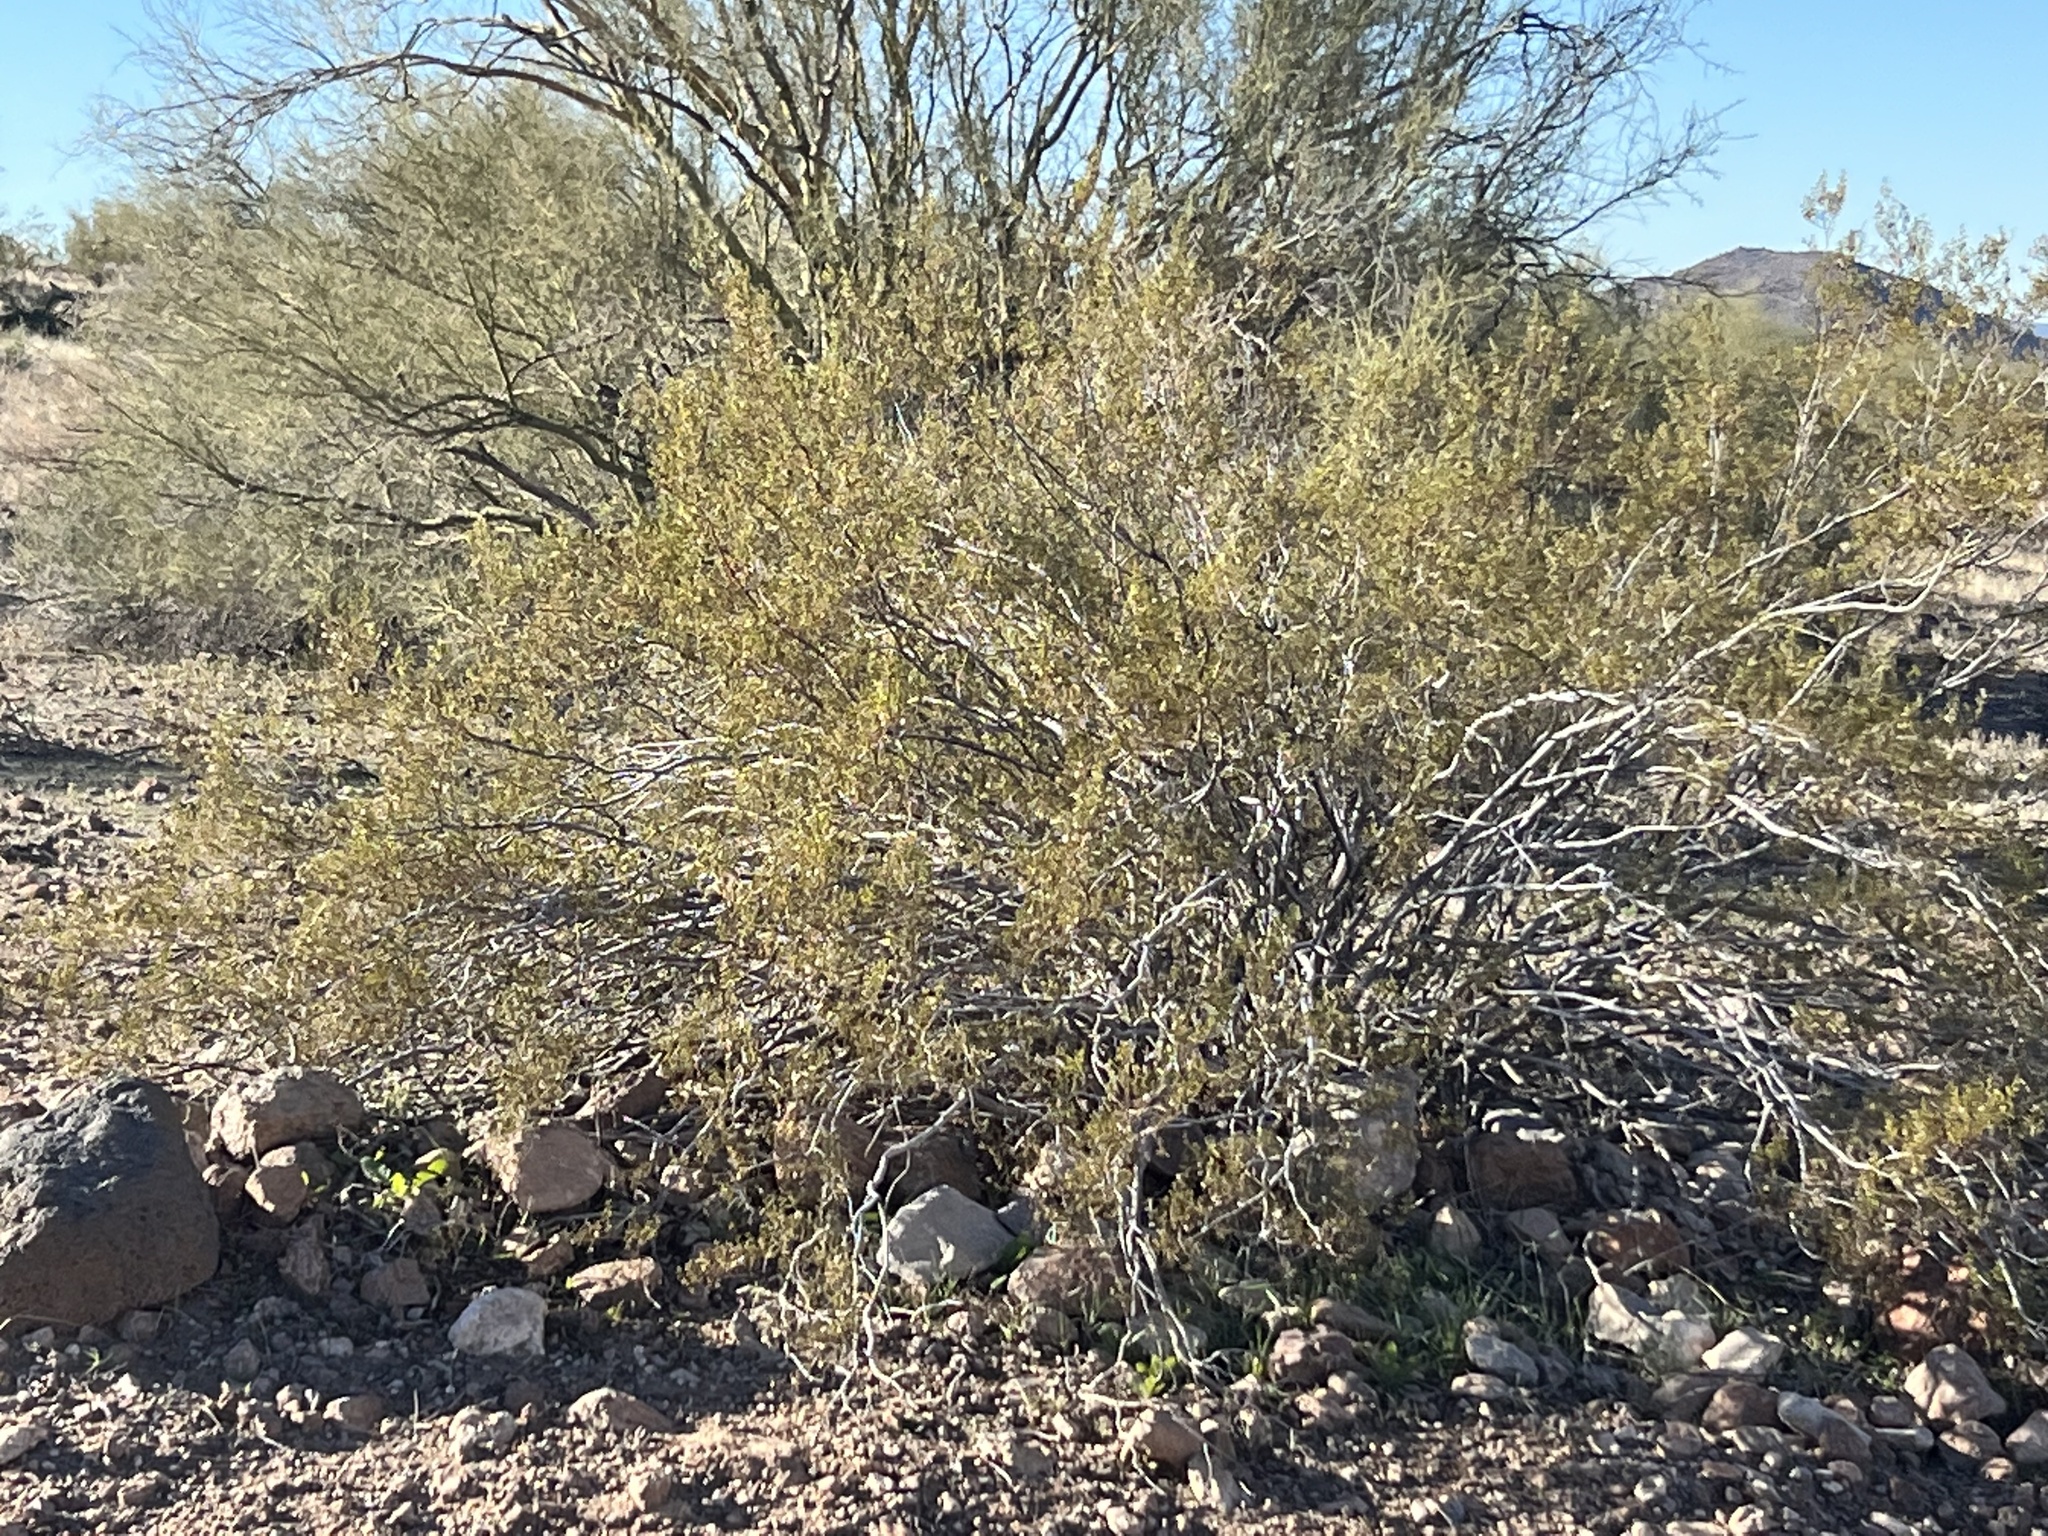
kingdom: Plantae
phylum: Tracheophyta
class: Magnoliopsida
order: Zygophyllales
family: Zygophyllaceae
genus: Larrea
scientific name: Larrea tridentata
